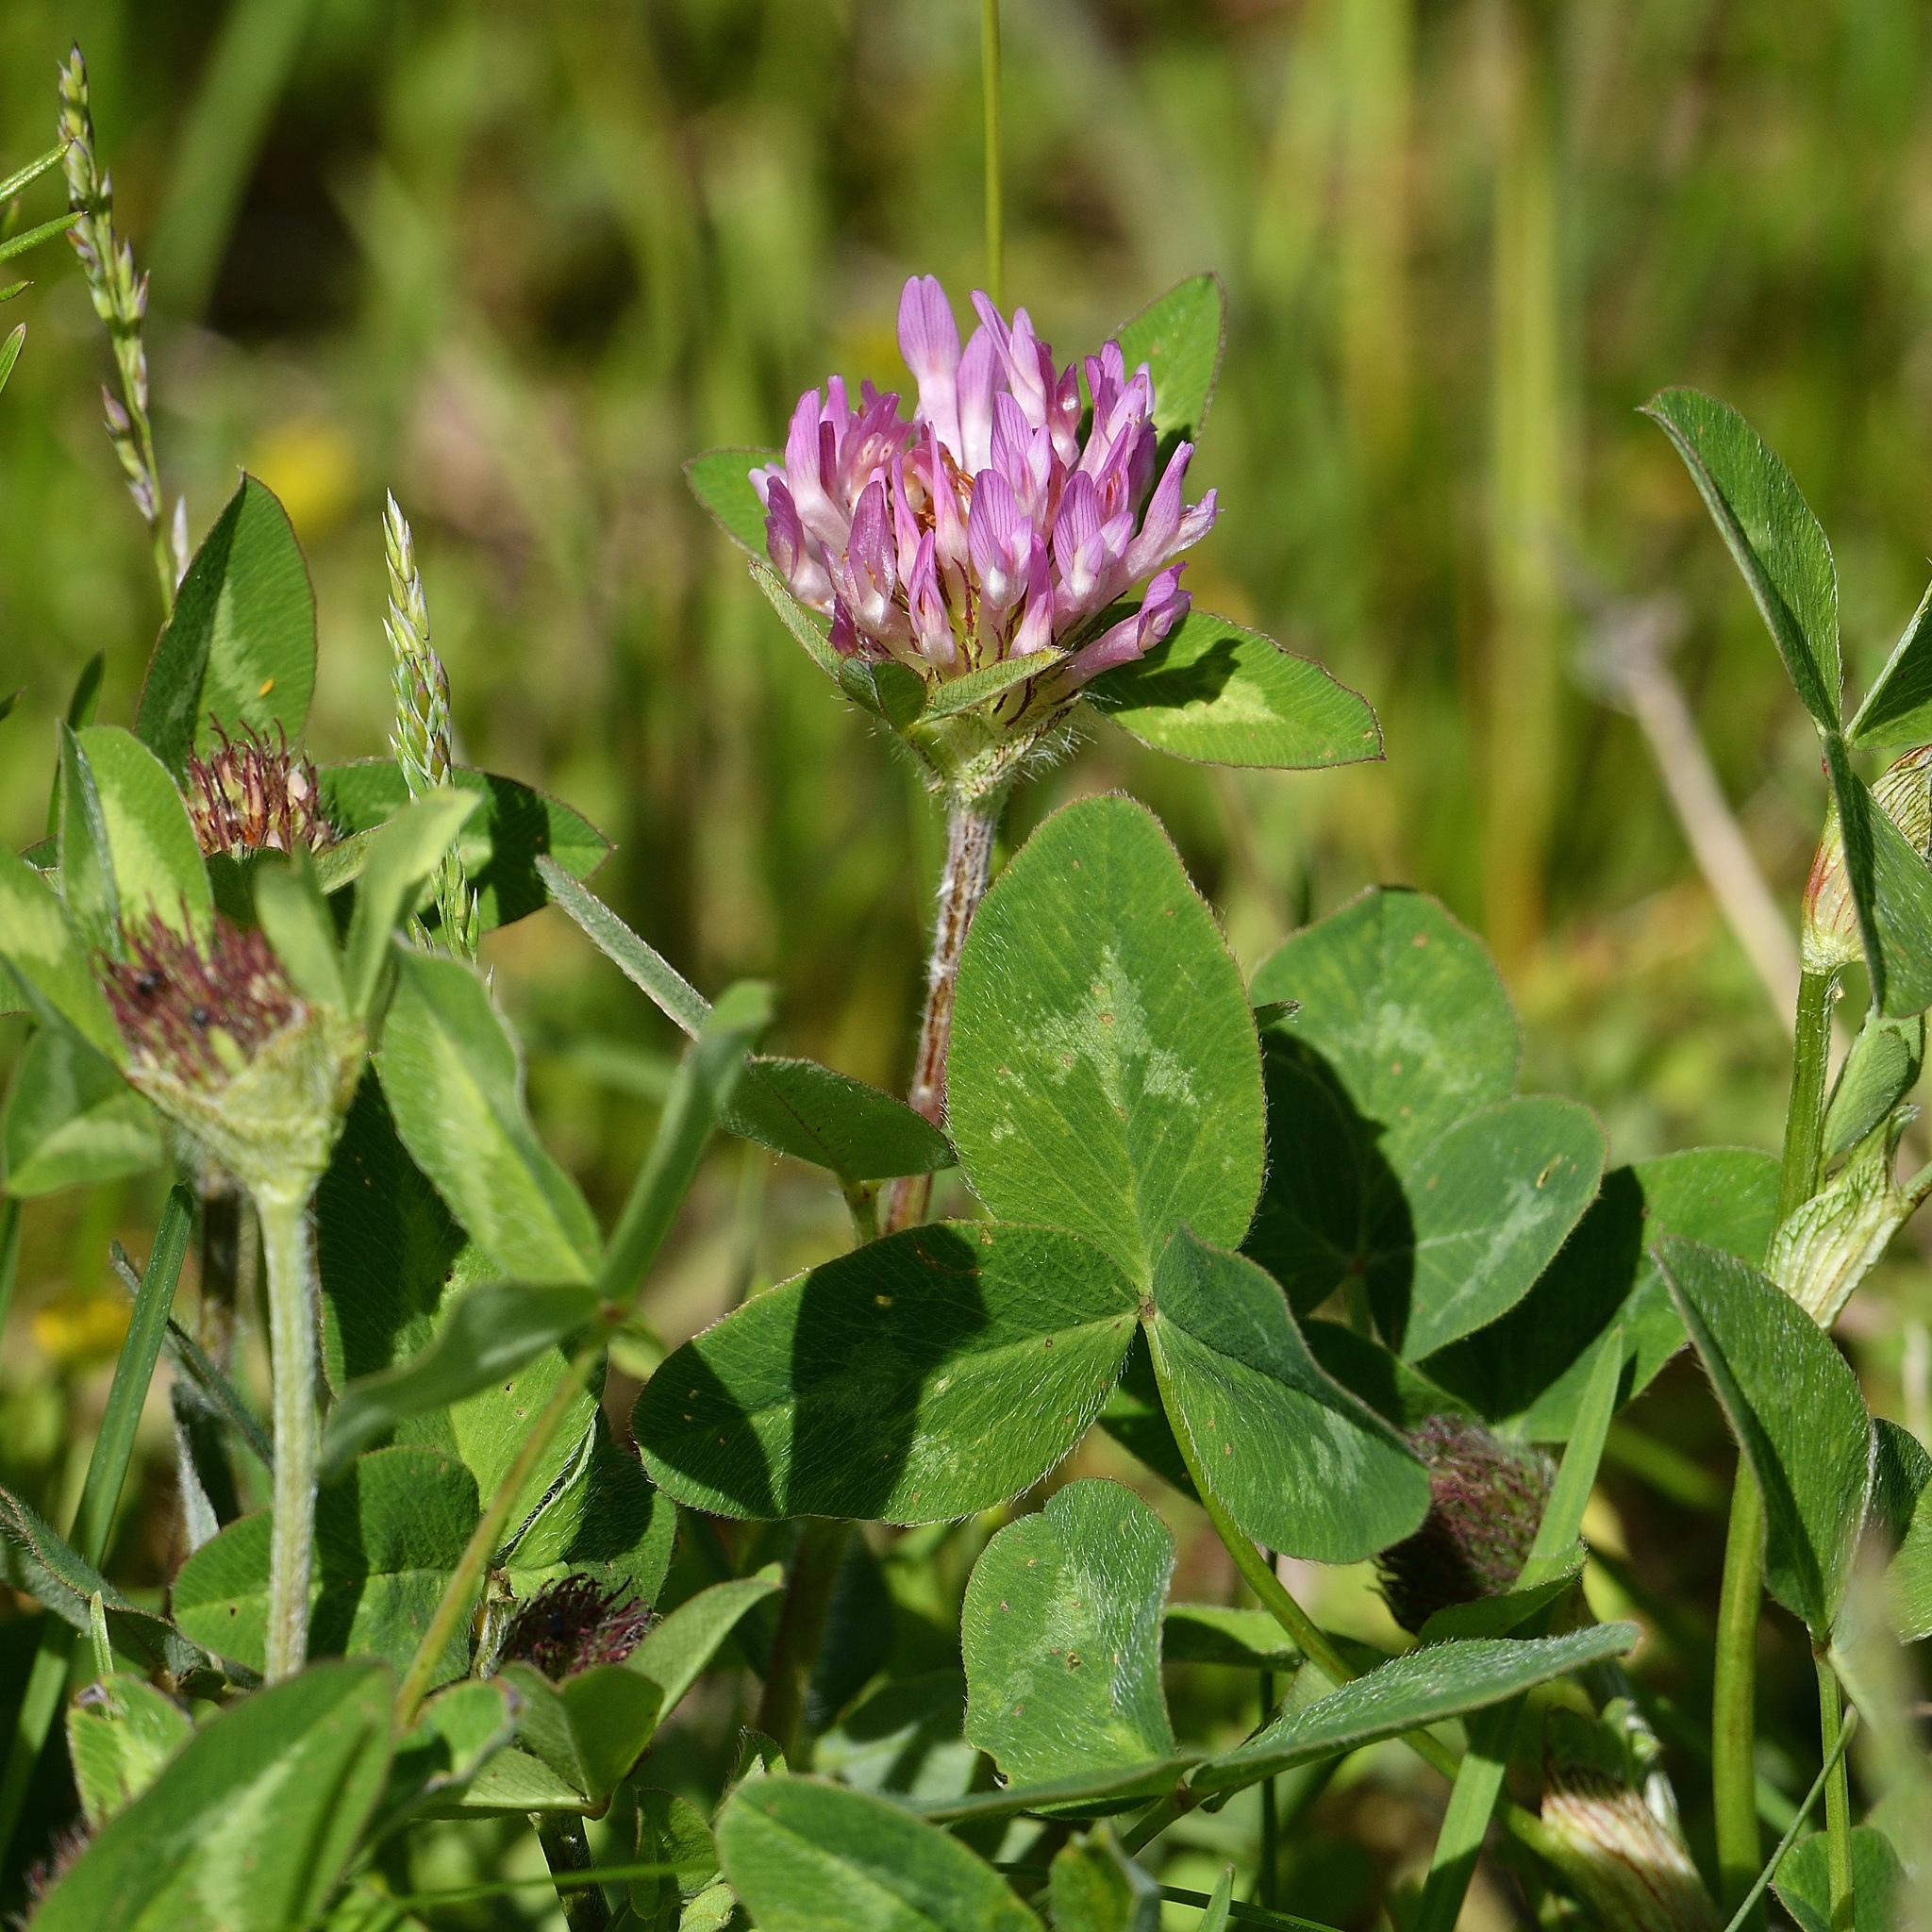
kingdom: Plantae
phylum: Tracheophyta
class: Magnoliopsida
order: Fabales
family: Fabaceae
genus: Trifolium
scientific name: Trifolium pratense
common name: Red clover
